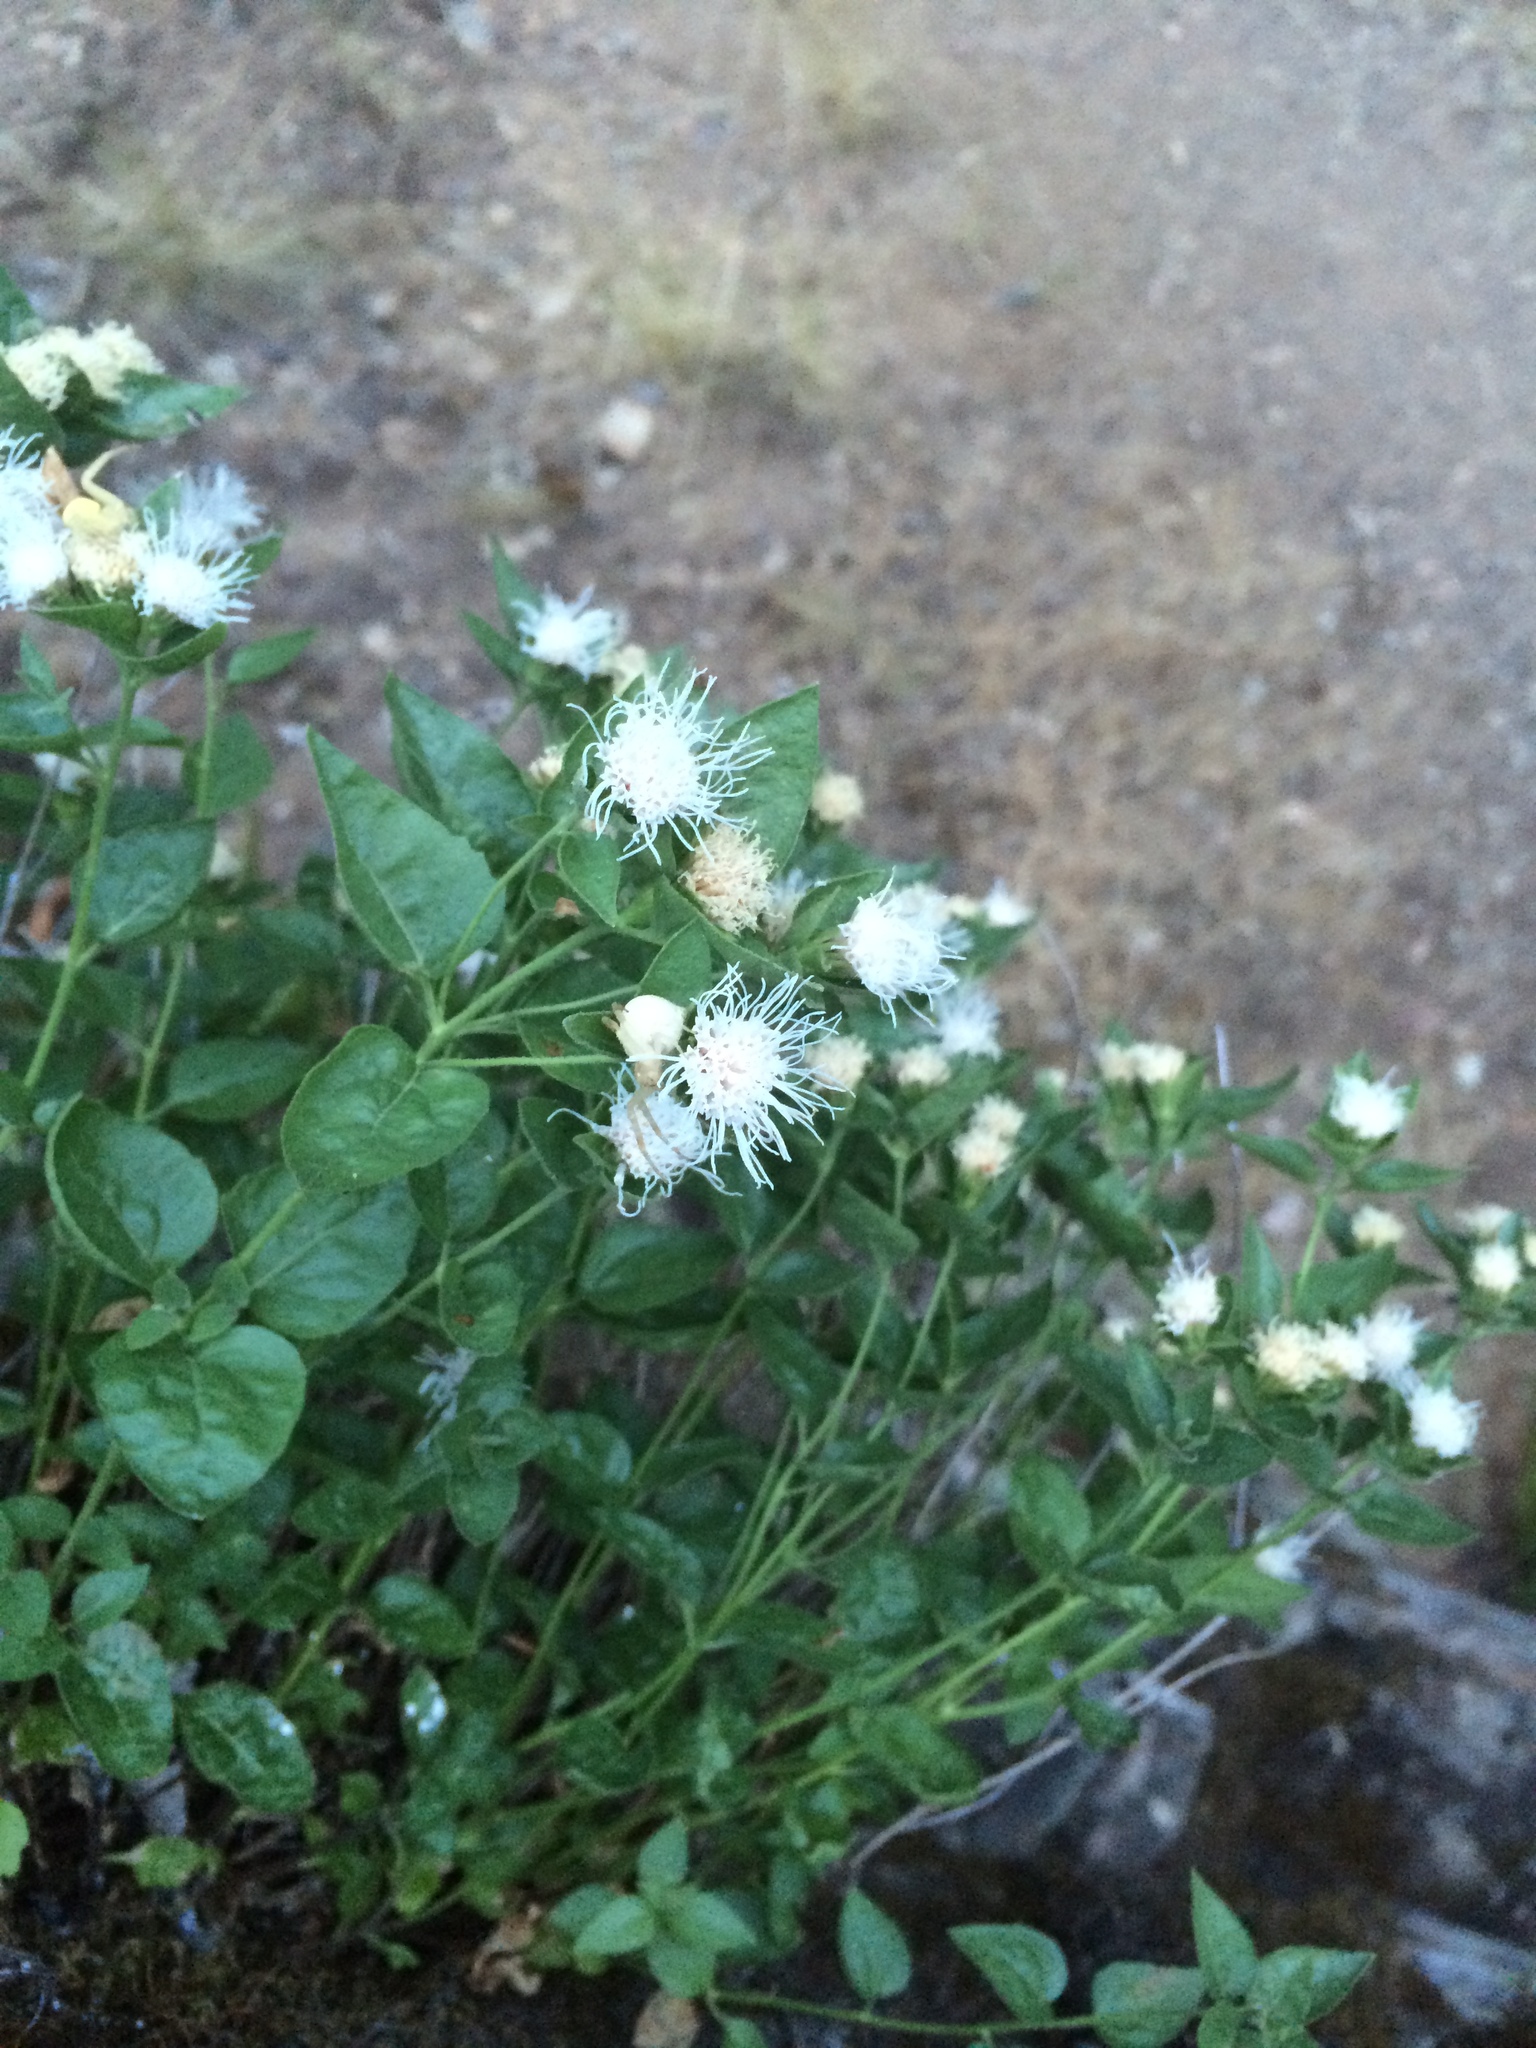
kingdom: Plantae
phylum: Tracheophyta
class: Magnoliopsida
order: Asterales
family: Asteraceae
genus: Ageratina
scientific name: Ageratina shastensis
